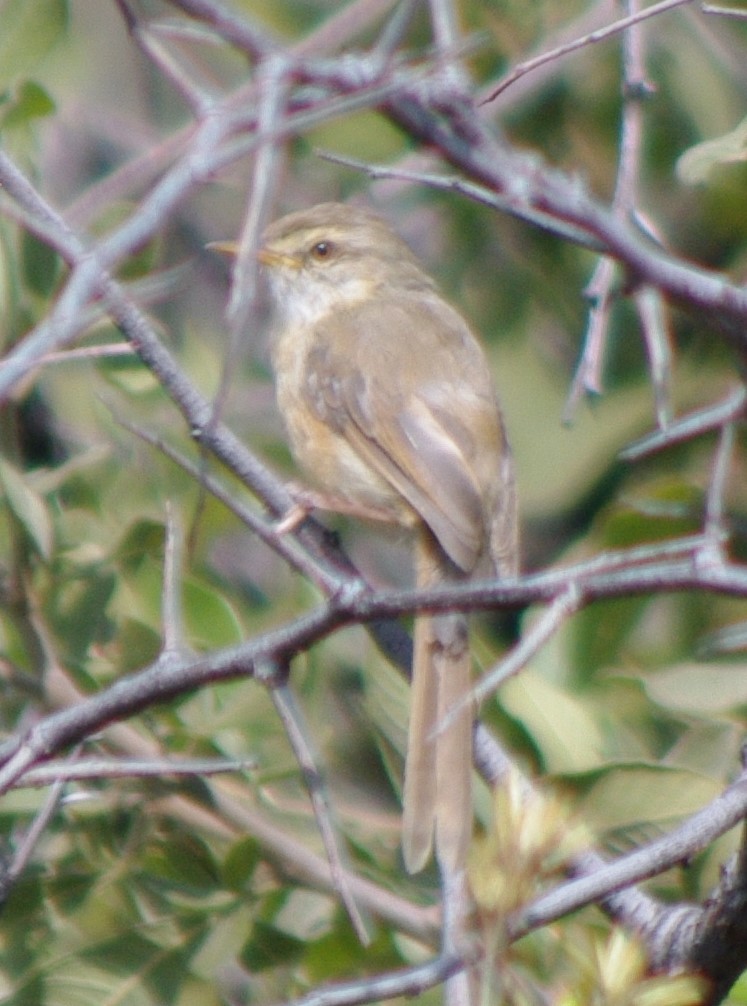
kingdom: Animalia
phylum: Chordata
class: Aves
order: Passeriformes
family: Cisticolidae
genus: Prinia
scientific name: Prinia subflava
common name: Tawny-flanked prinia
